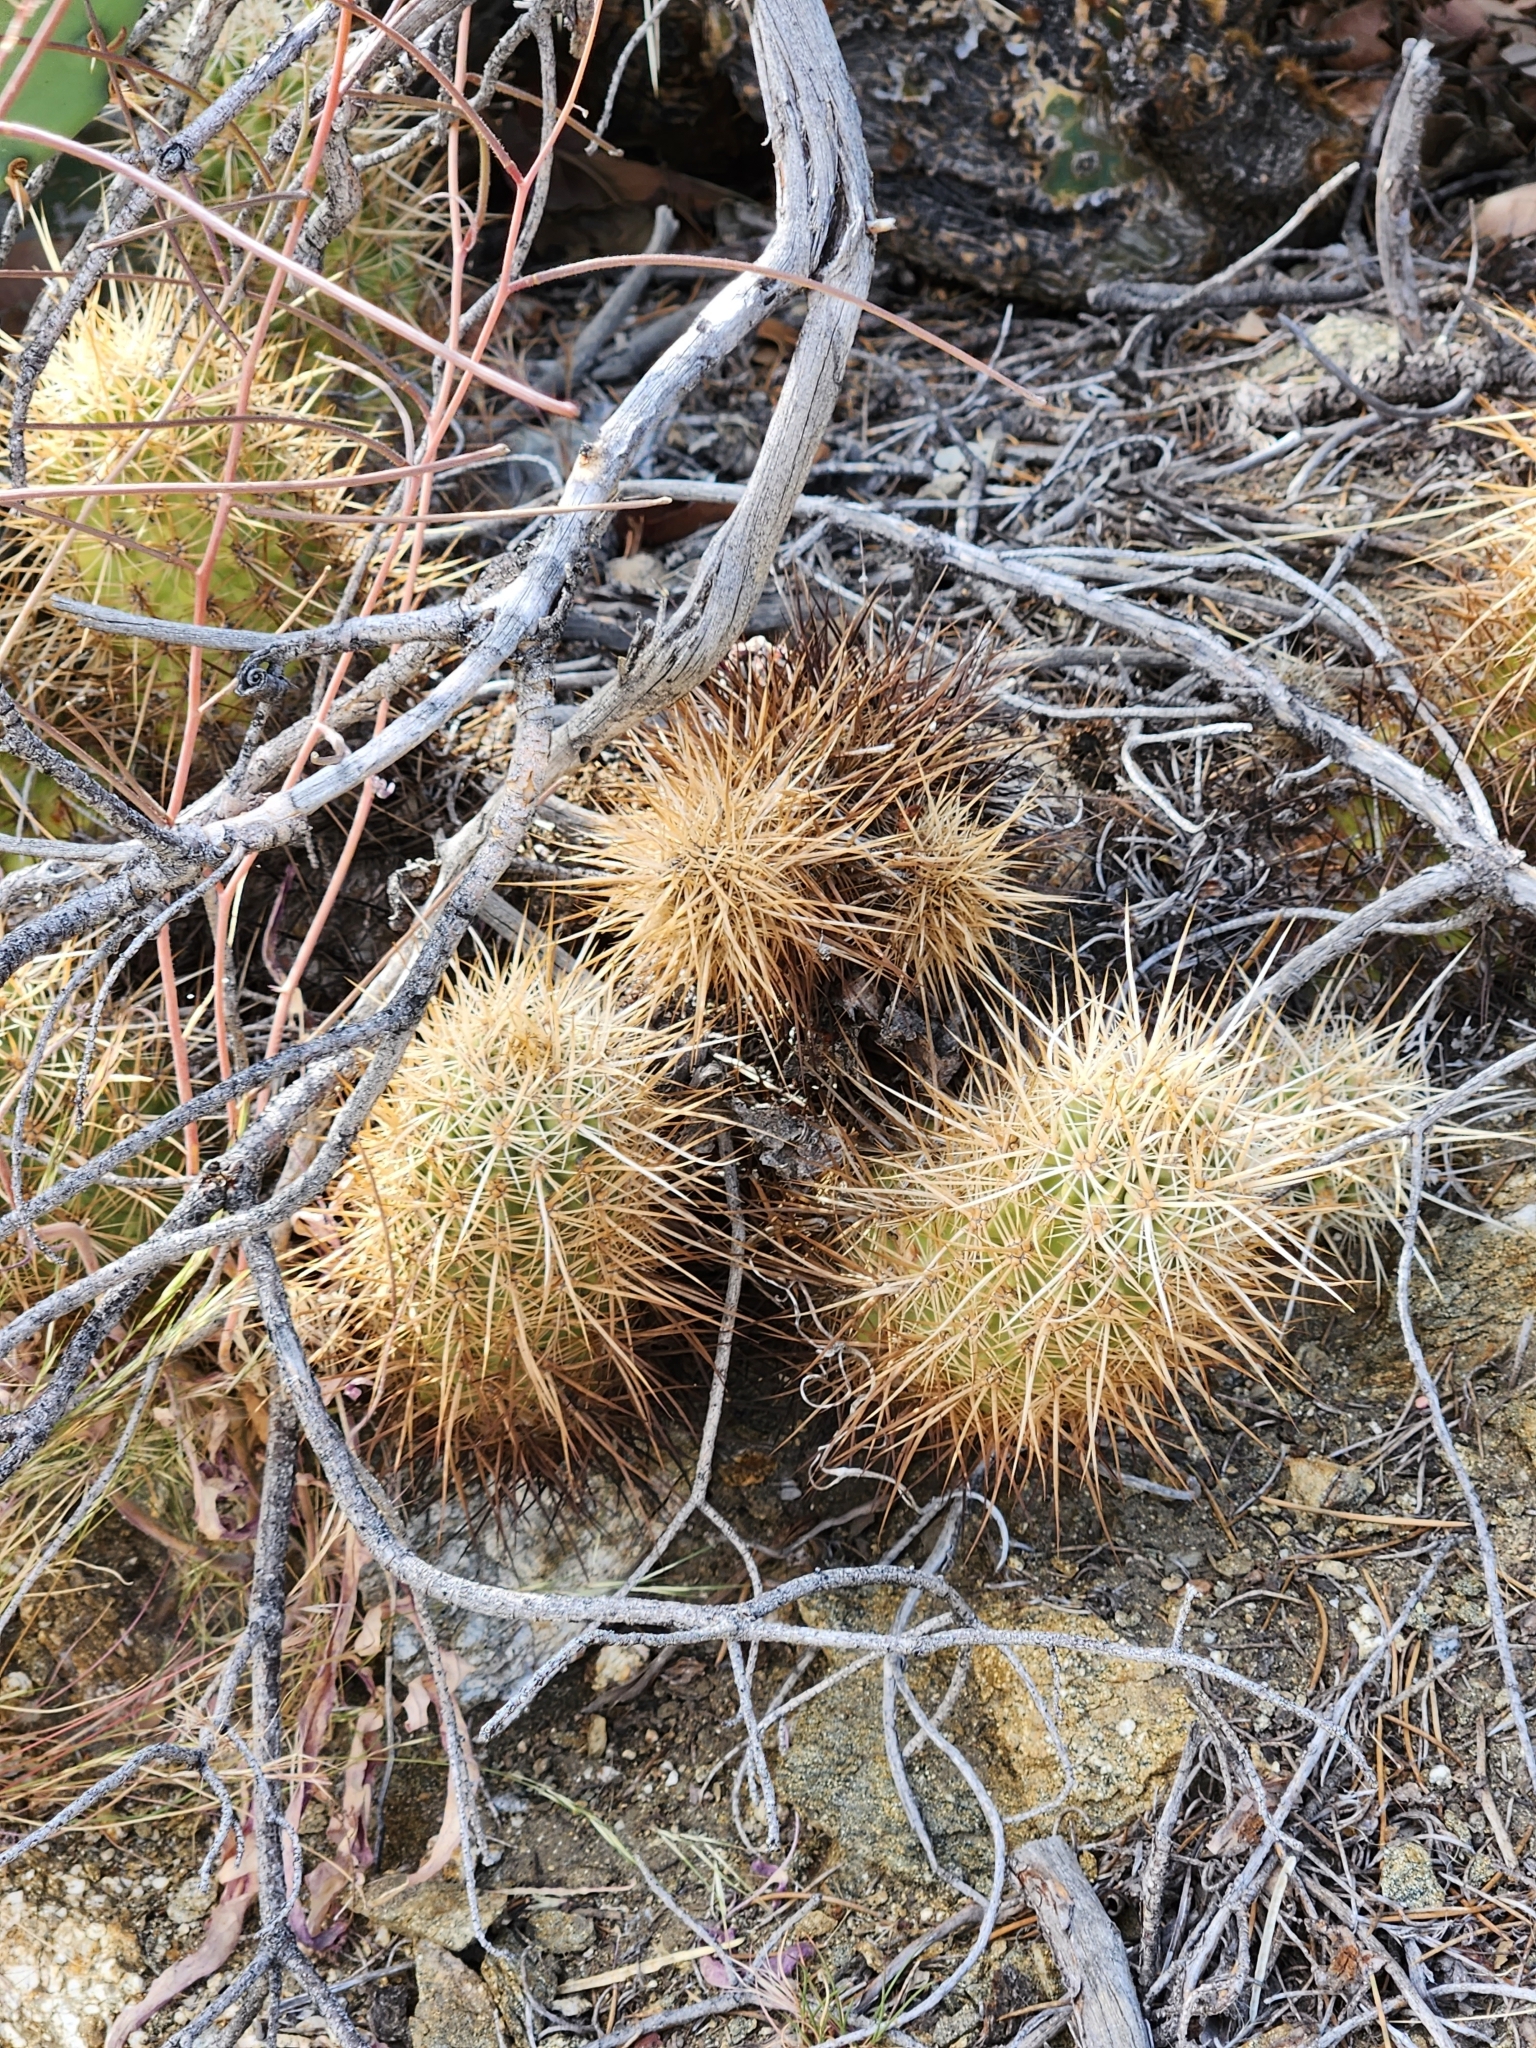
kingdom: Plantae
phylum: Tracheophyta
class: Magnoliopsida
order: Caryophyllales
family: Cactaceae
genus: Echinocereus
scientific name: Echinocereus engelmannii
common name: Engelmann's hedgehog cactus
